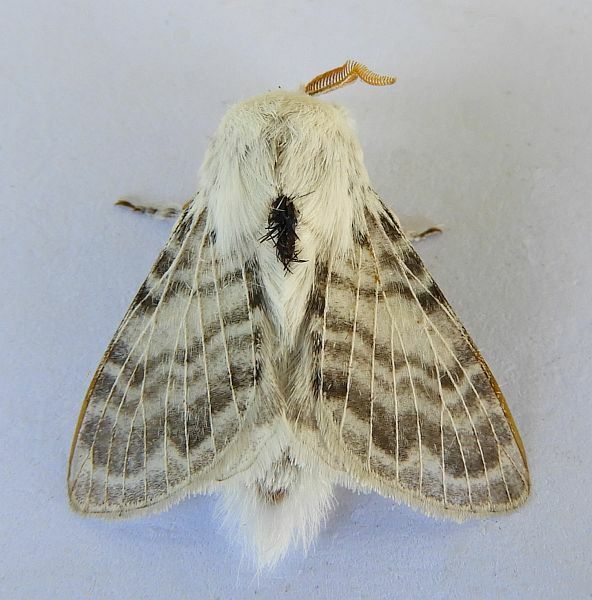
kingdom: Animalia
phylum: Arthropoda
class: Insecta
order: Lepidoptera
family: Lasiocampidae
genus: Apotolype
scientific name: Apotolype brevicrista
